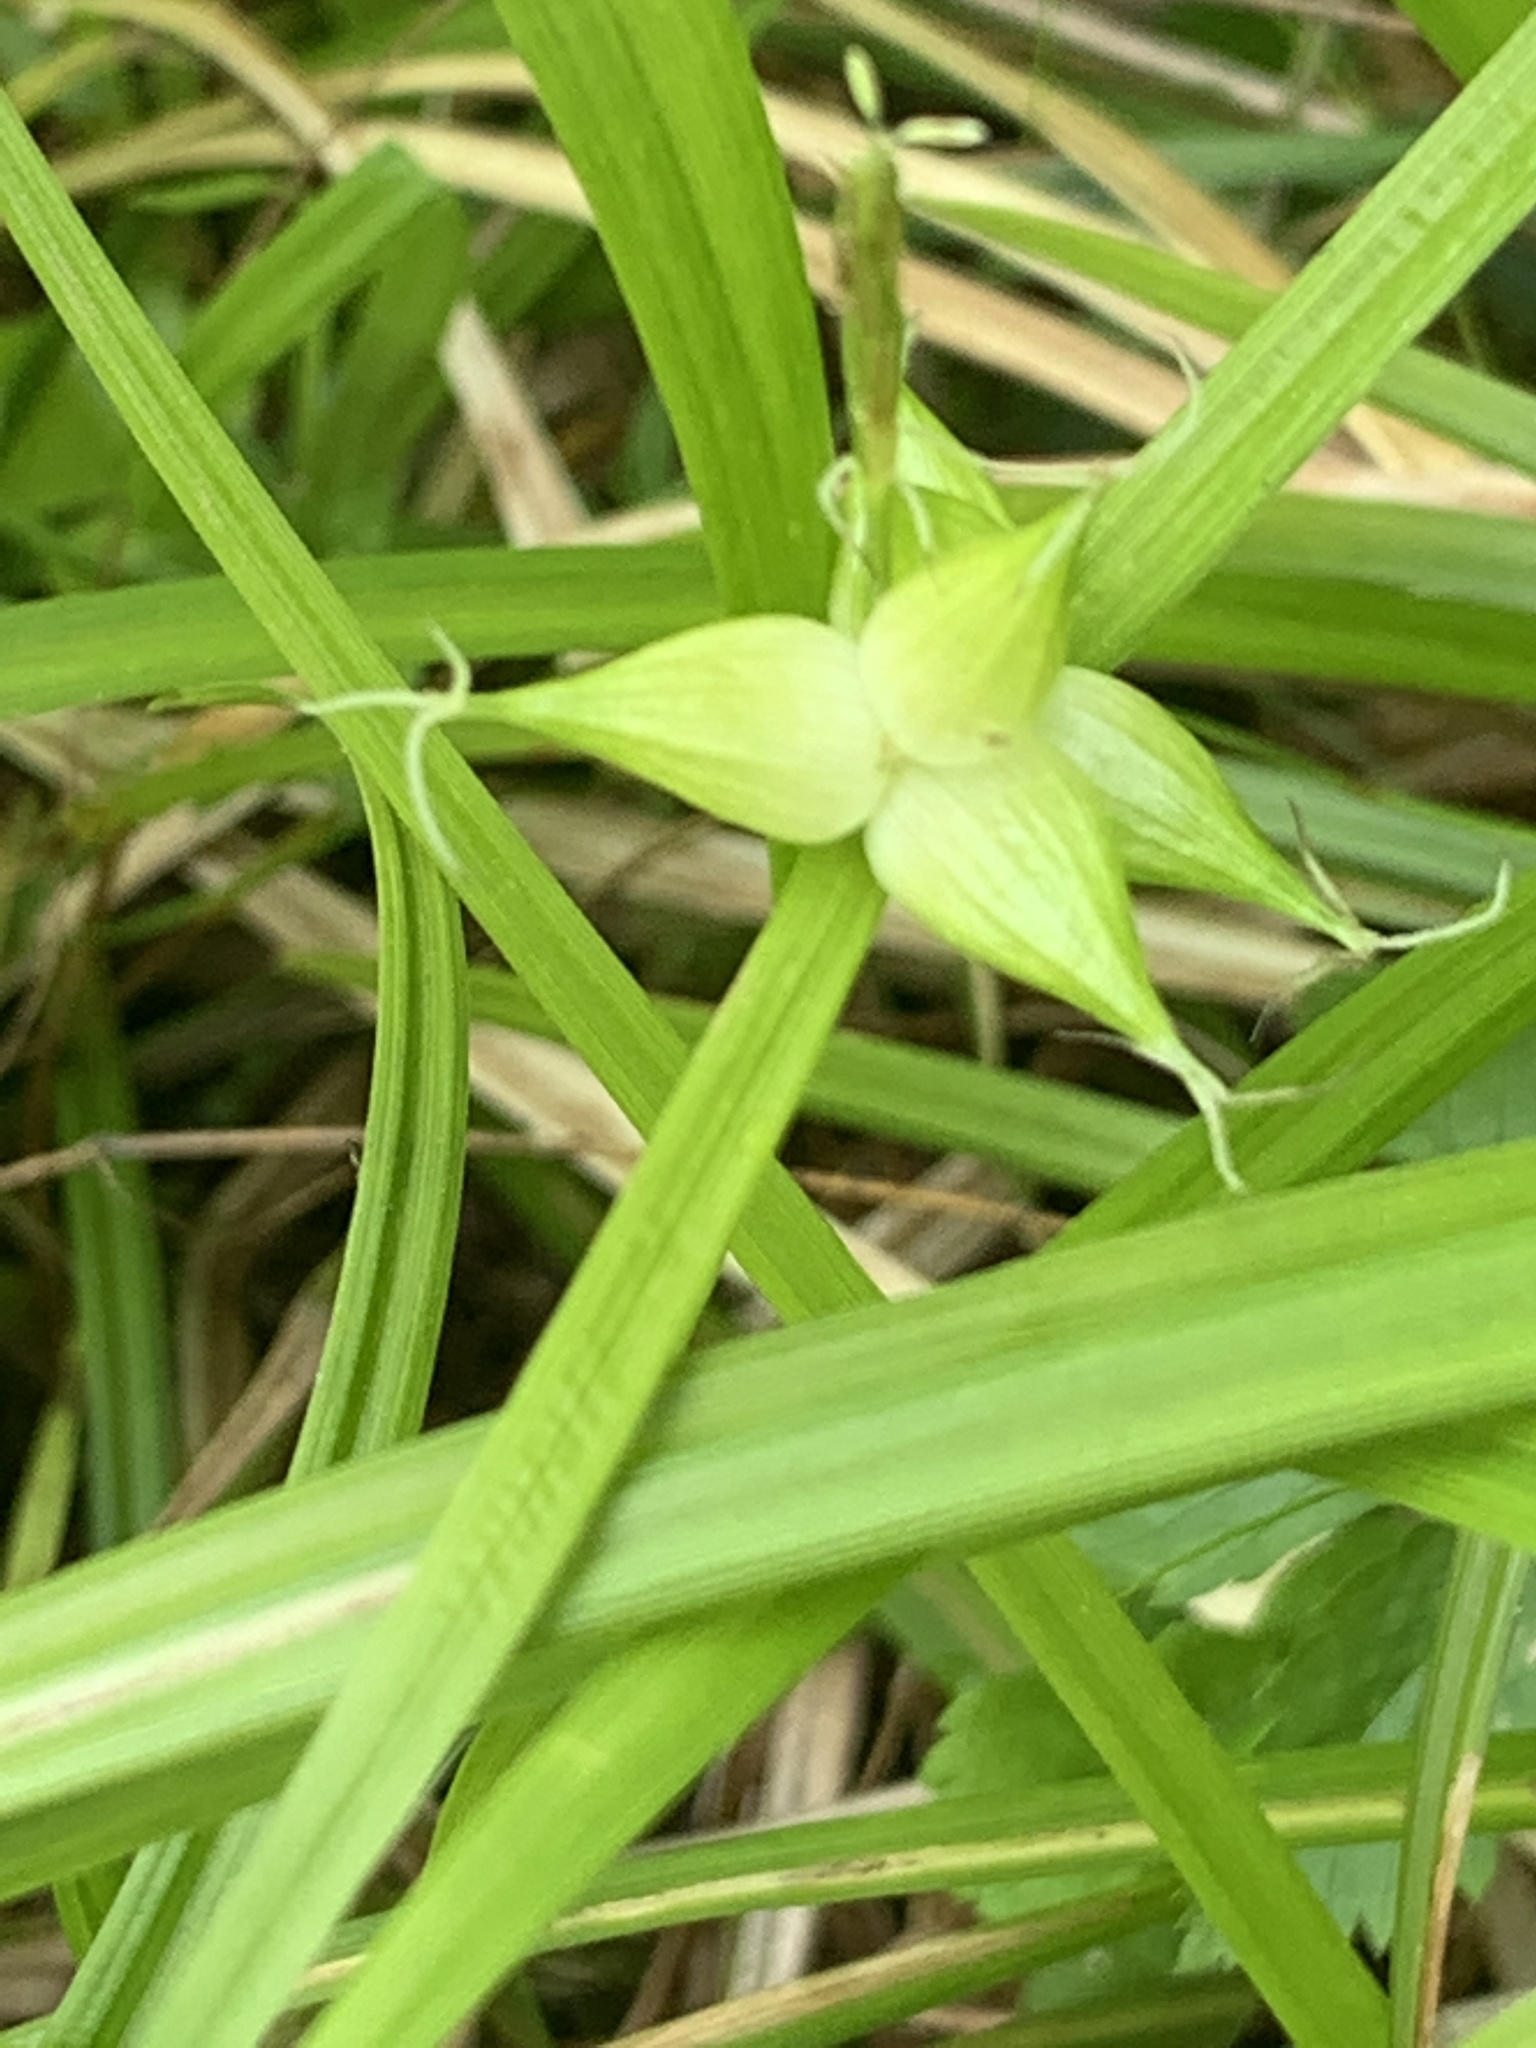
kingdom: Plantae
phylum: Tracheophyta
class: Liliopsida
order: Poales
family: Cyperaceae
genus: Carex
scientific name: Carex intumescens
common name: Greater bladder sedge
